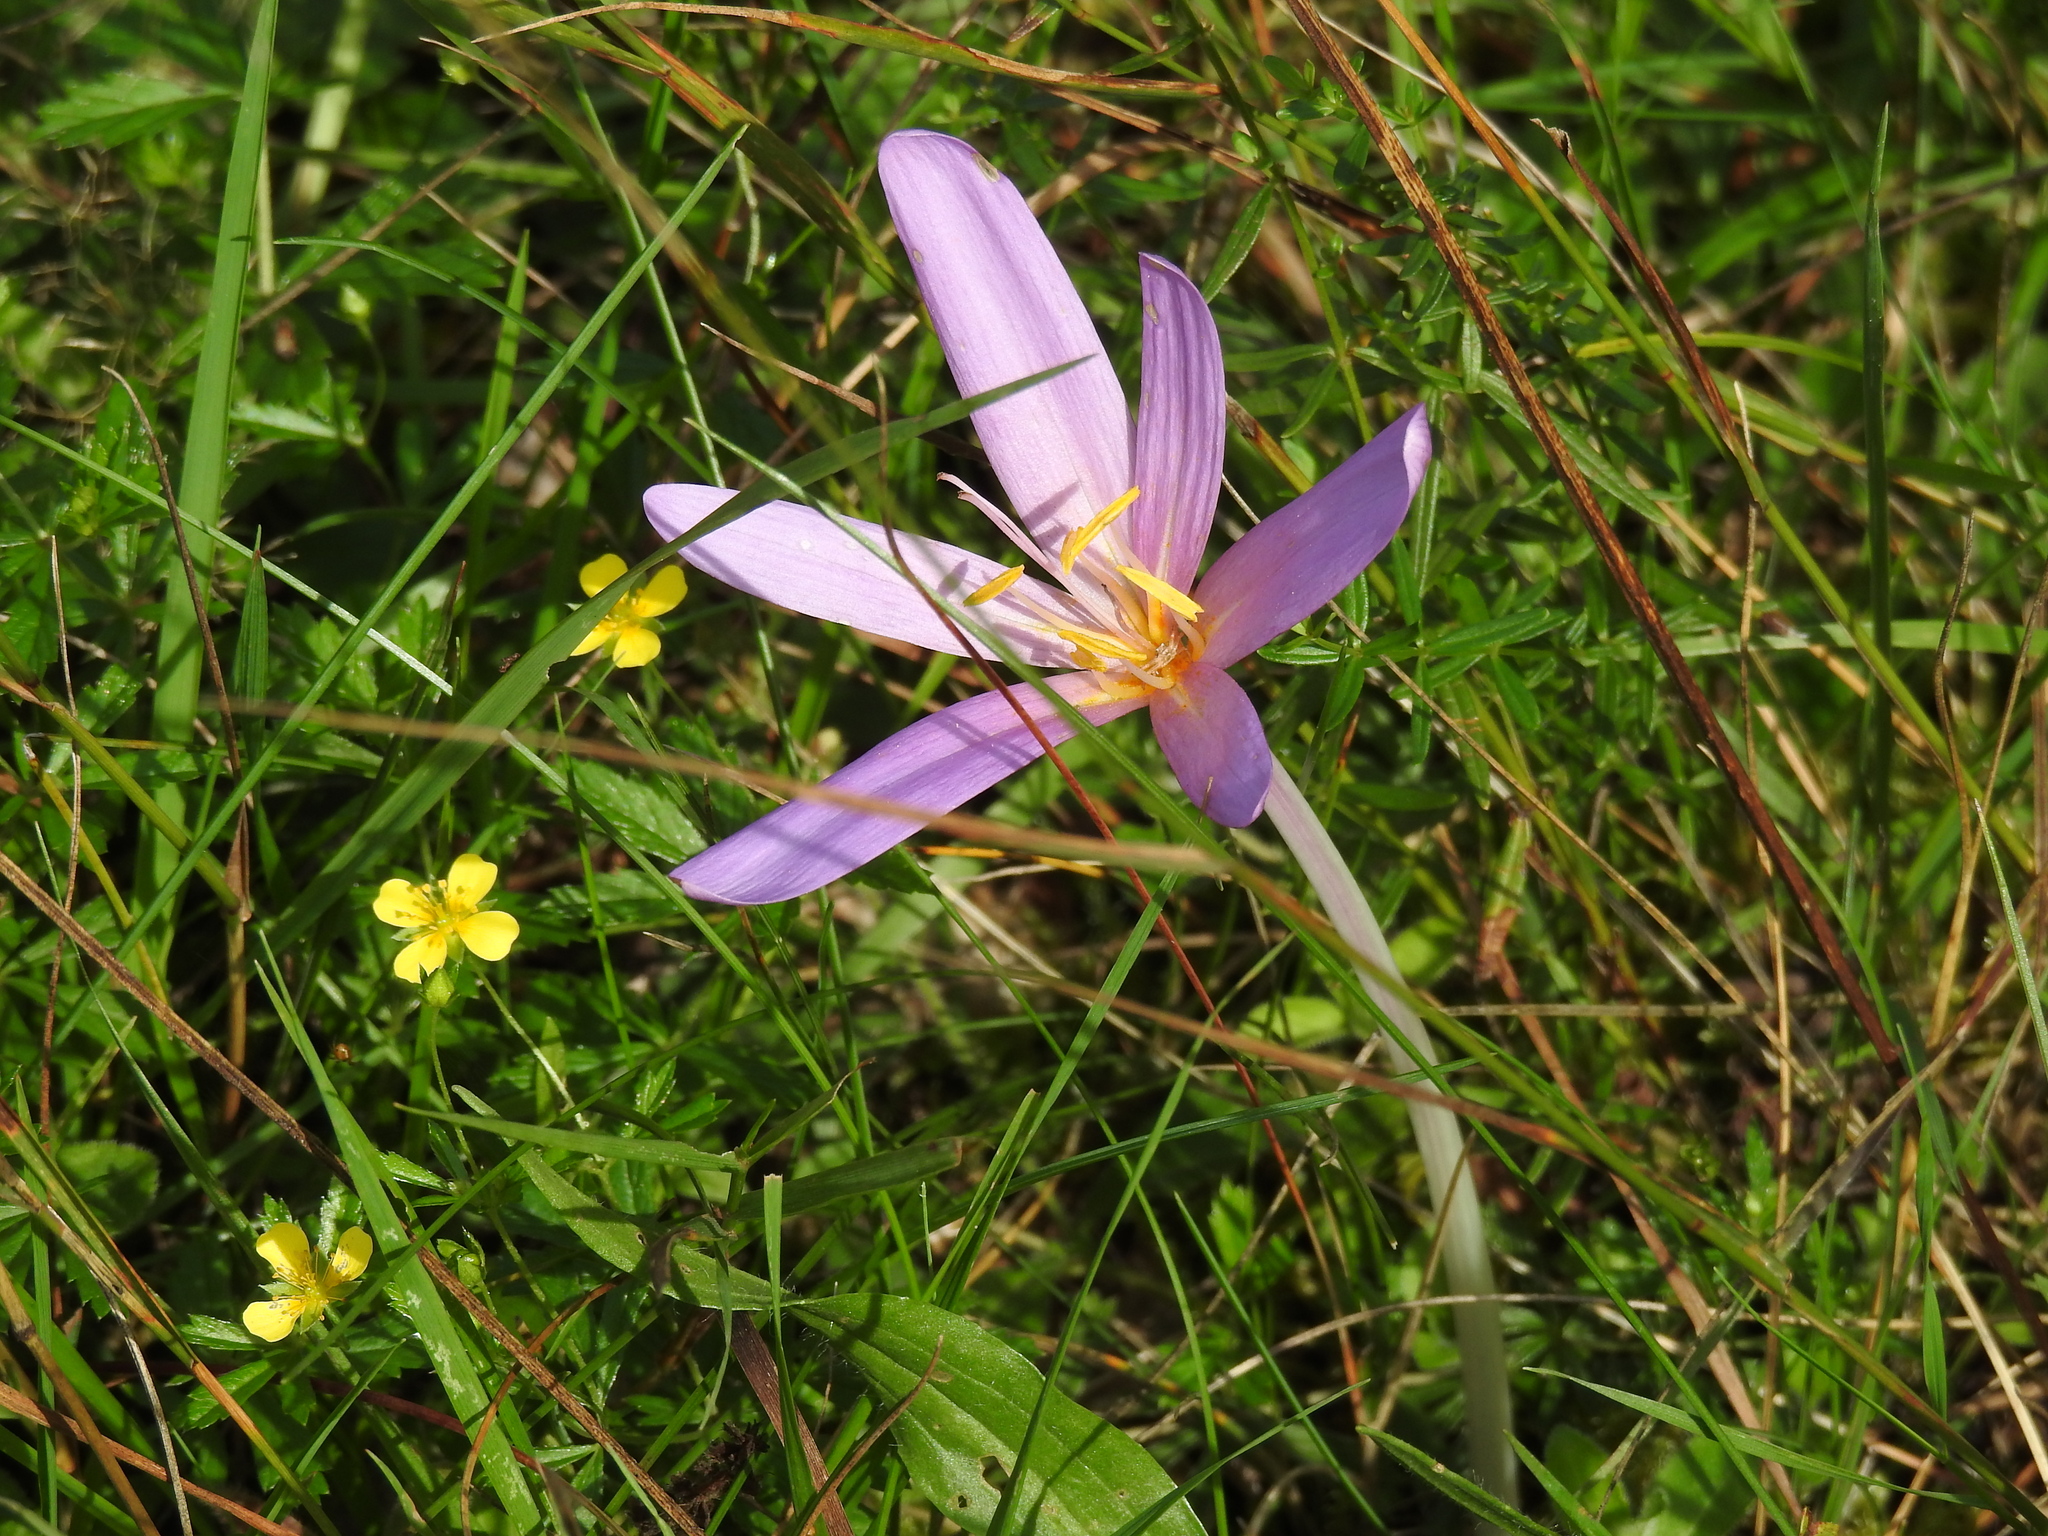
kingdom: Plantae
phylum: Tracheophyta
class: Liliopsida
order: Liliales
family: Colchicaceae
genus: Colchicum
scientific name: Colchicum autumnale
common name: Autumn crocus
